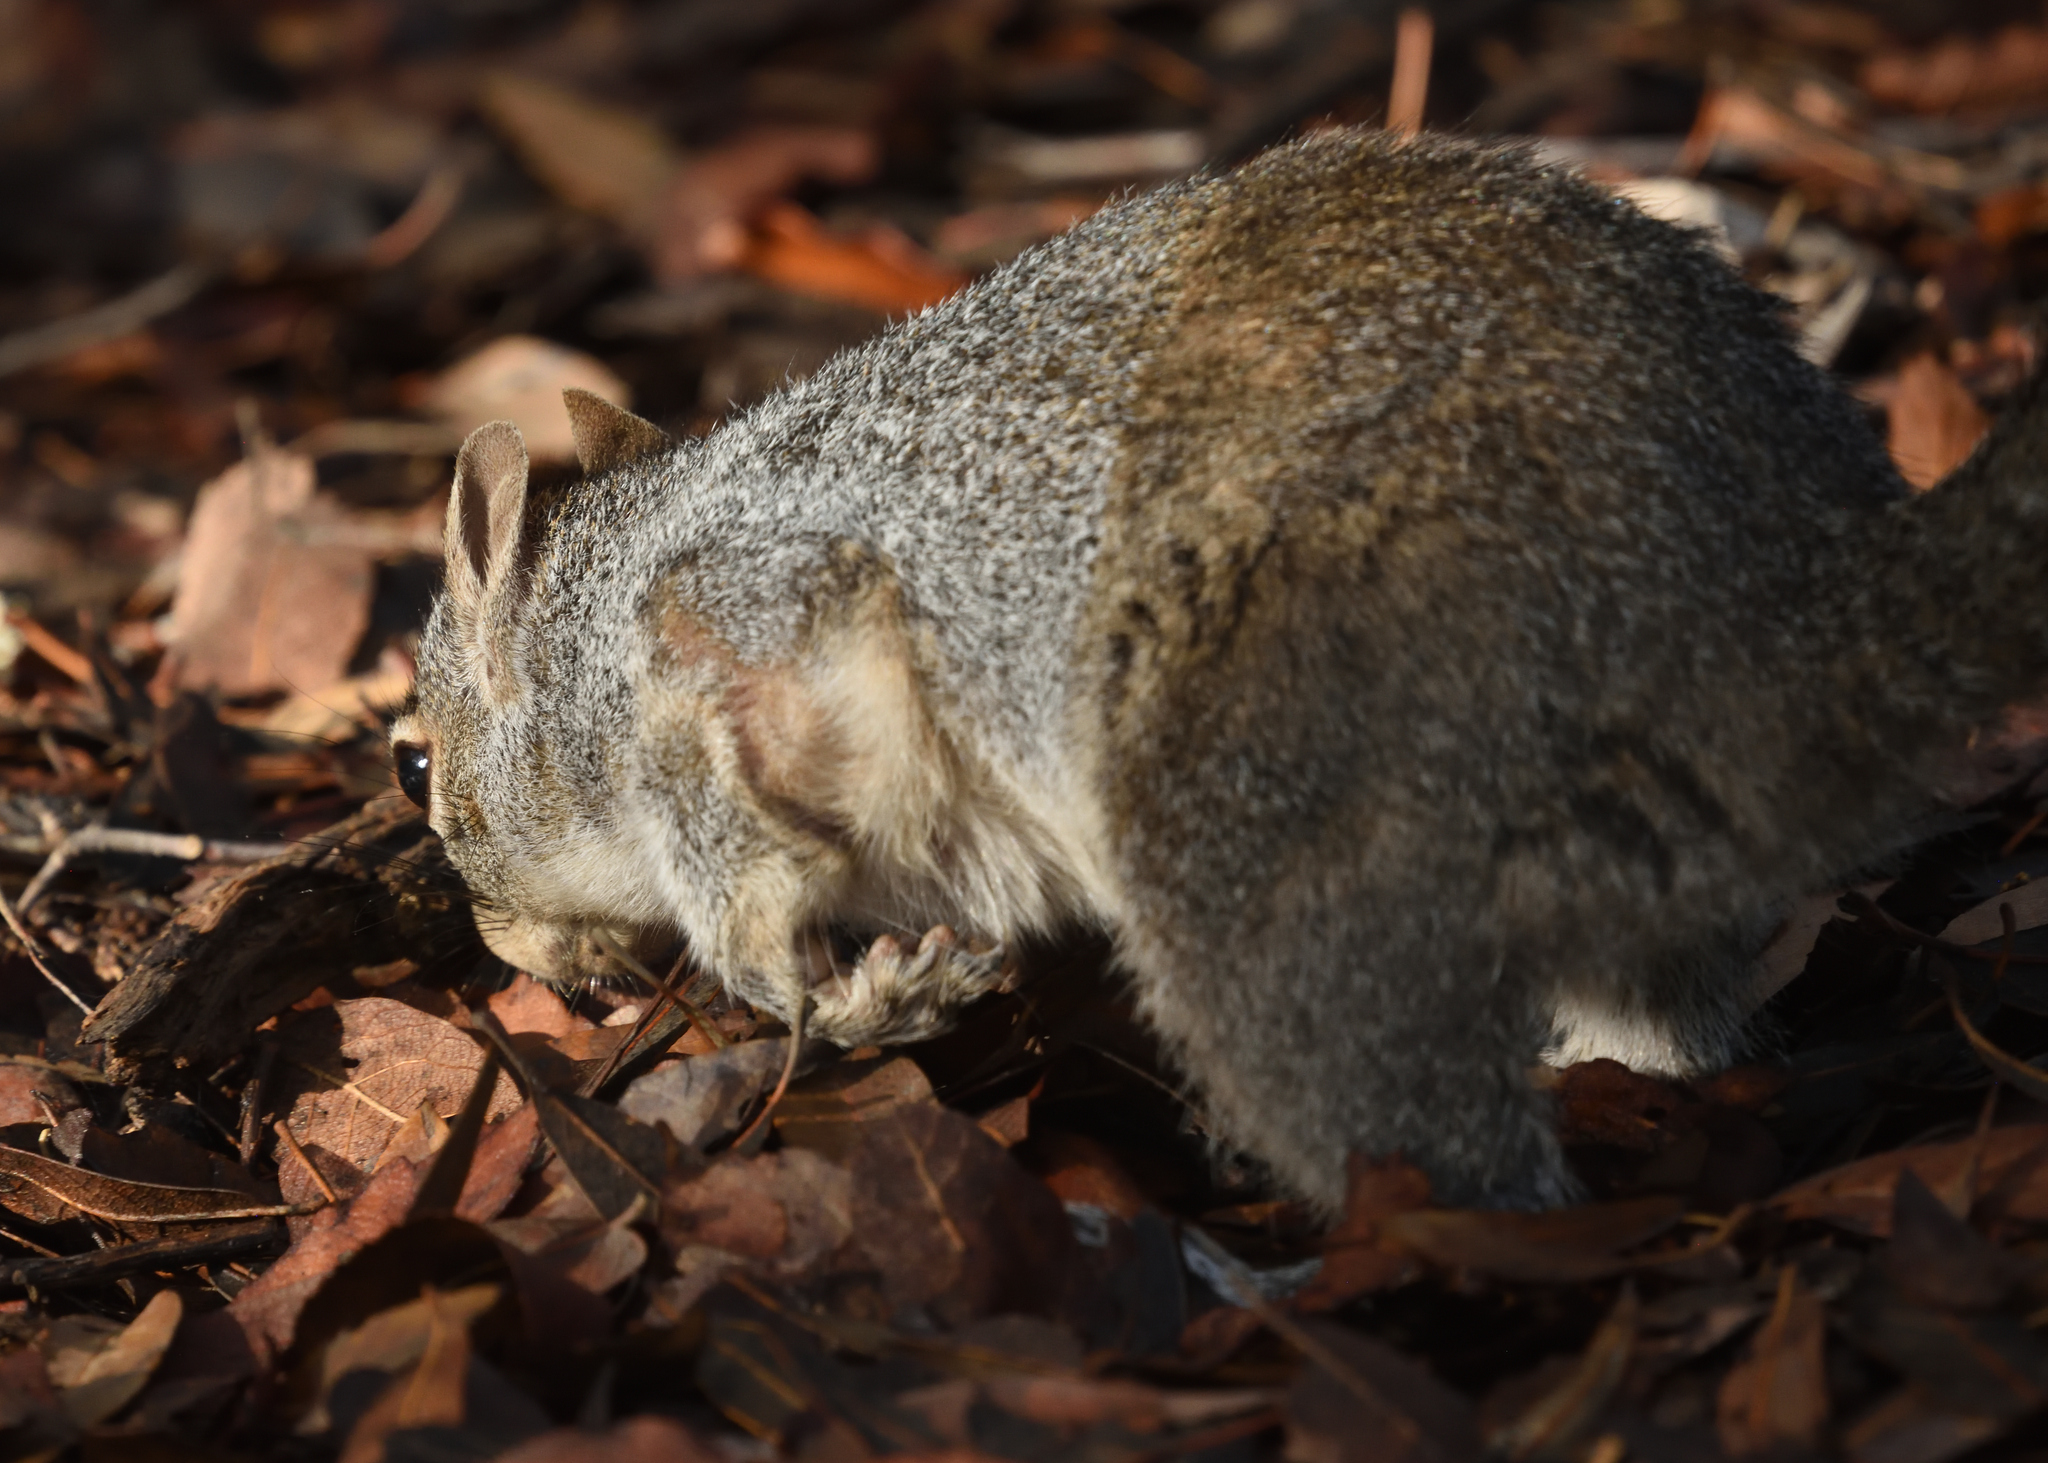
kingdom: Animalia
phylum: Chordata
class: Mammalia
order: Rodentia
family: Sciuridae
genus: Sciurus
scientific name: Sciurus arizonensis
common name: Arizona gray squirrel
